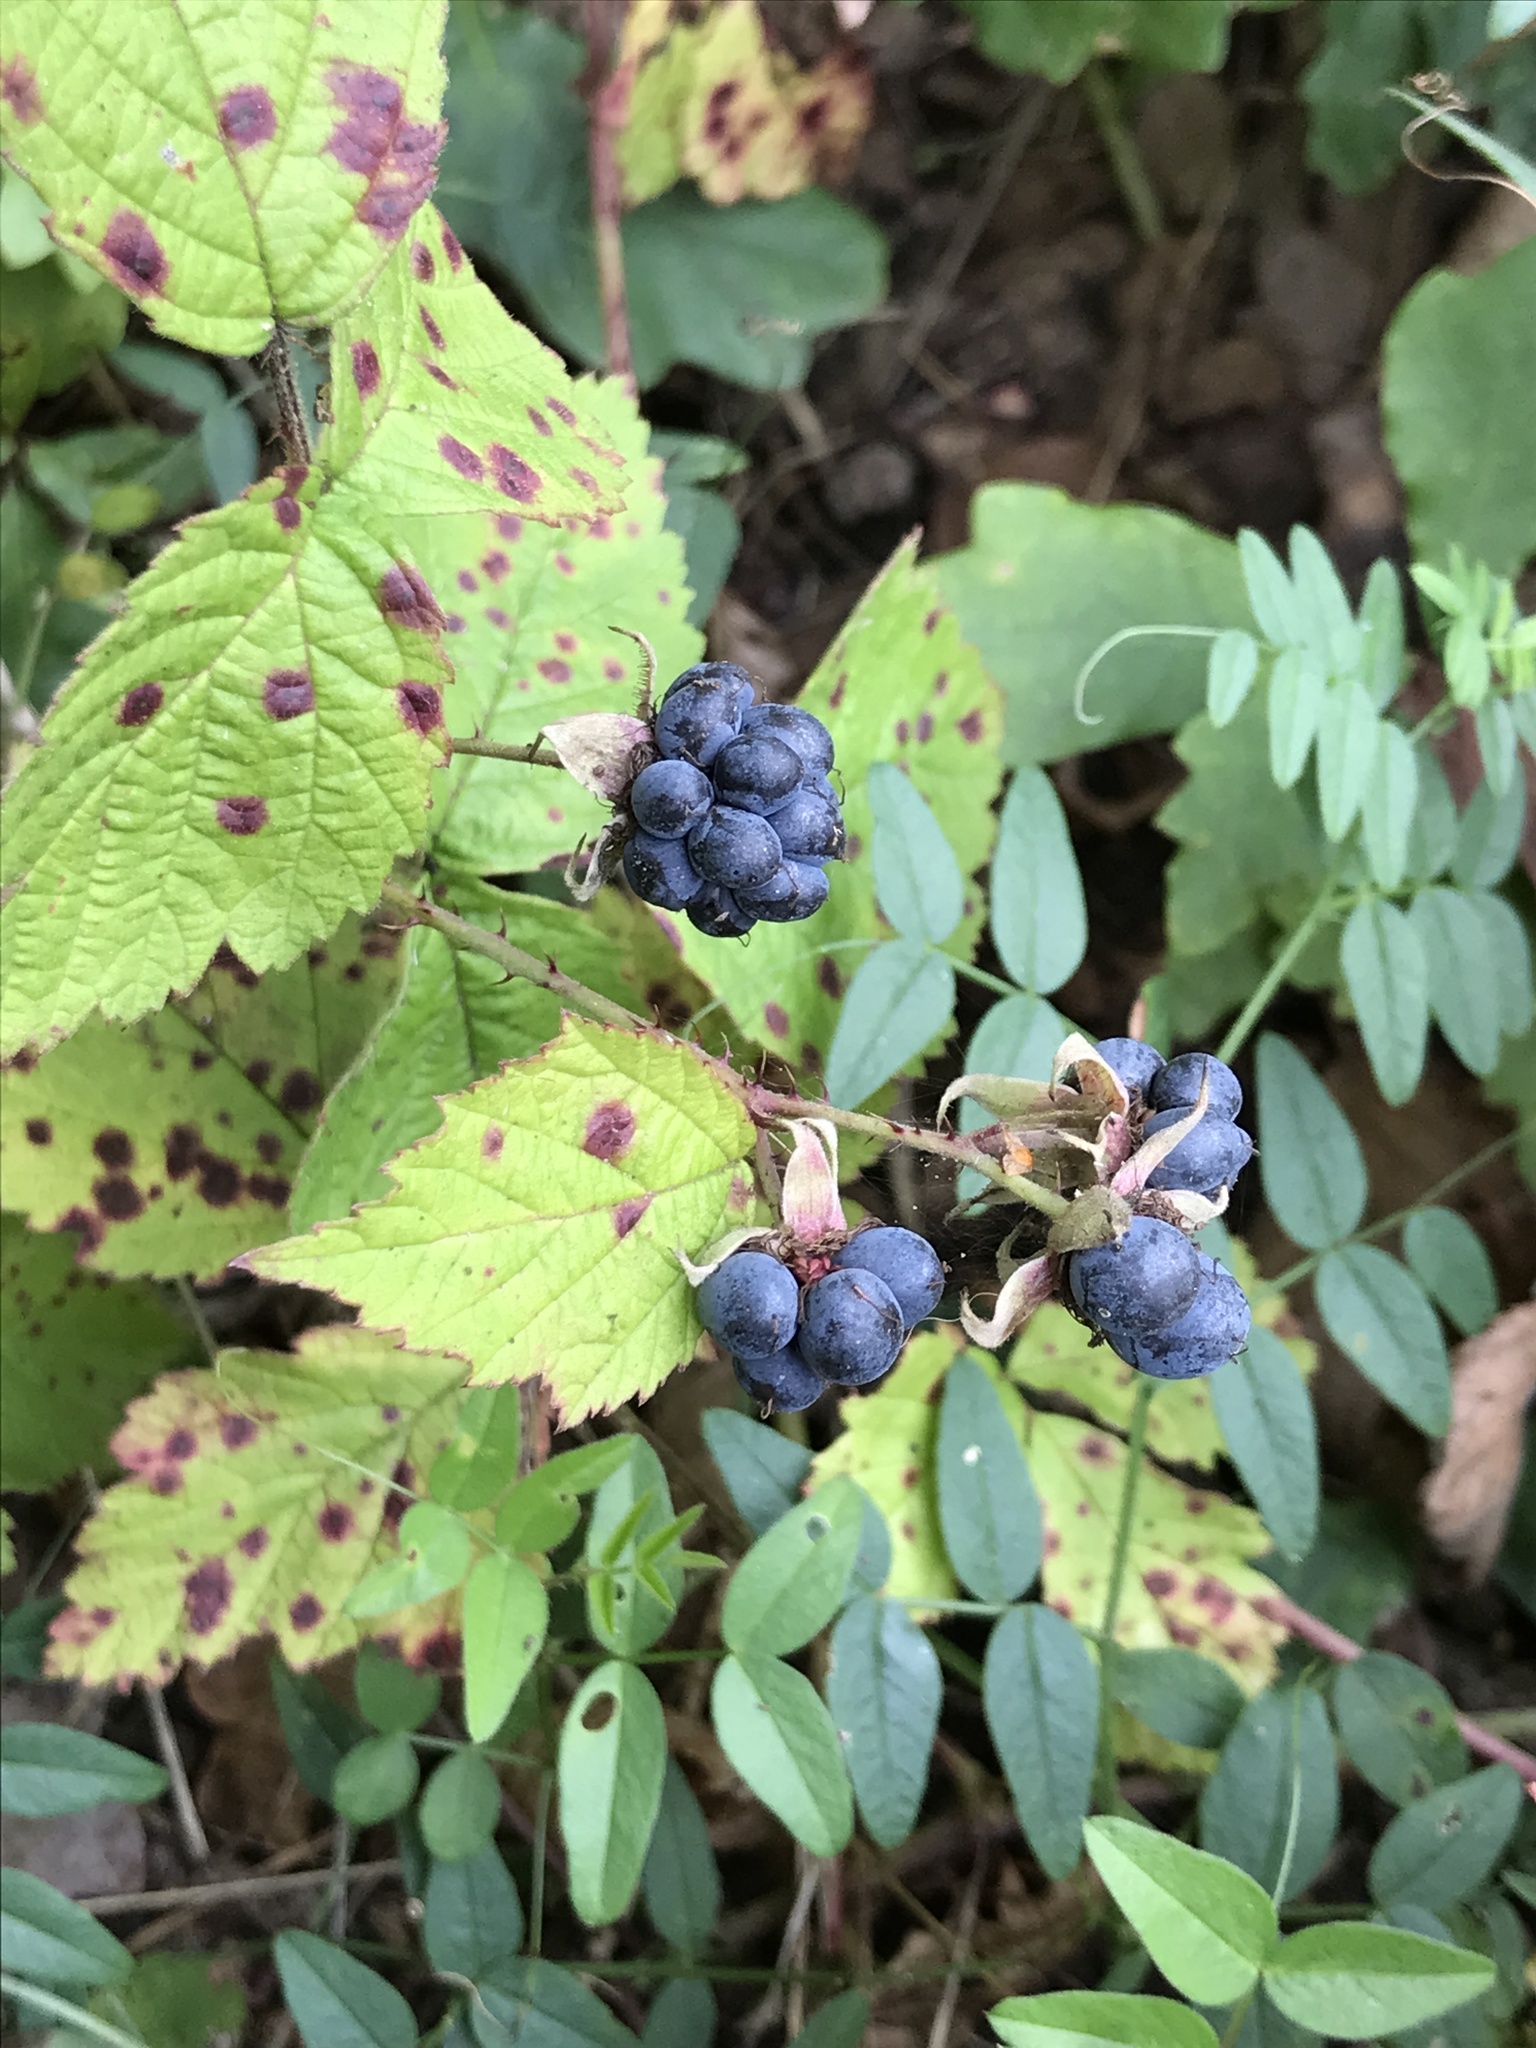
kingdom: Plantae
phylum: Tracheophyta
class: Magnoliopsida
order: Rosales
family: Rosaceae
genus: Rubus
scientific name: Rubus caesius
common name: Dewberry
